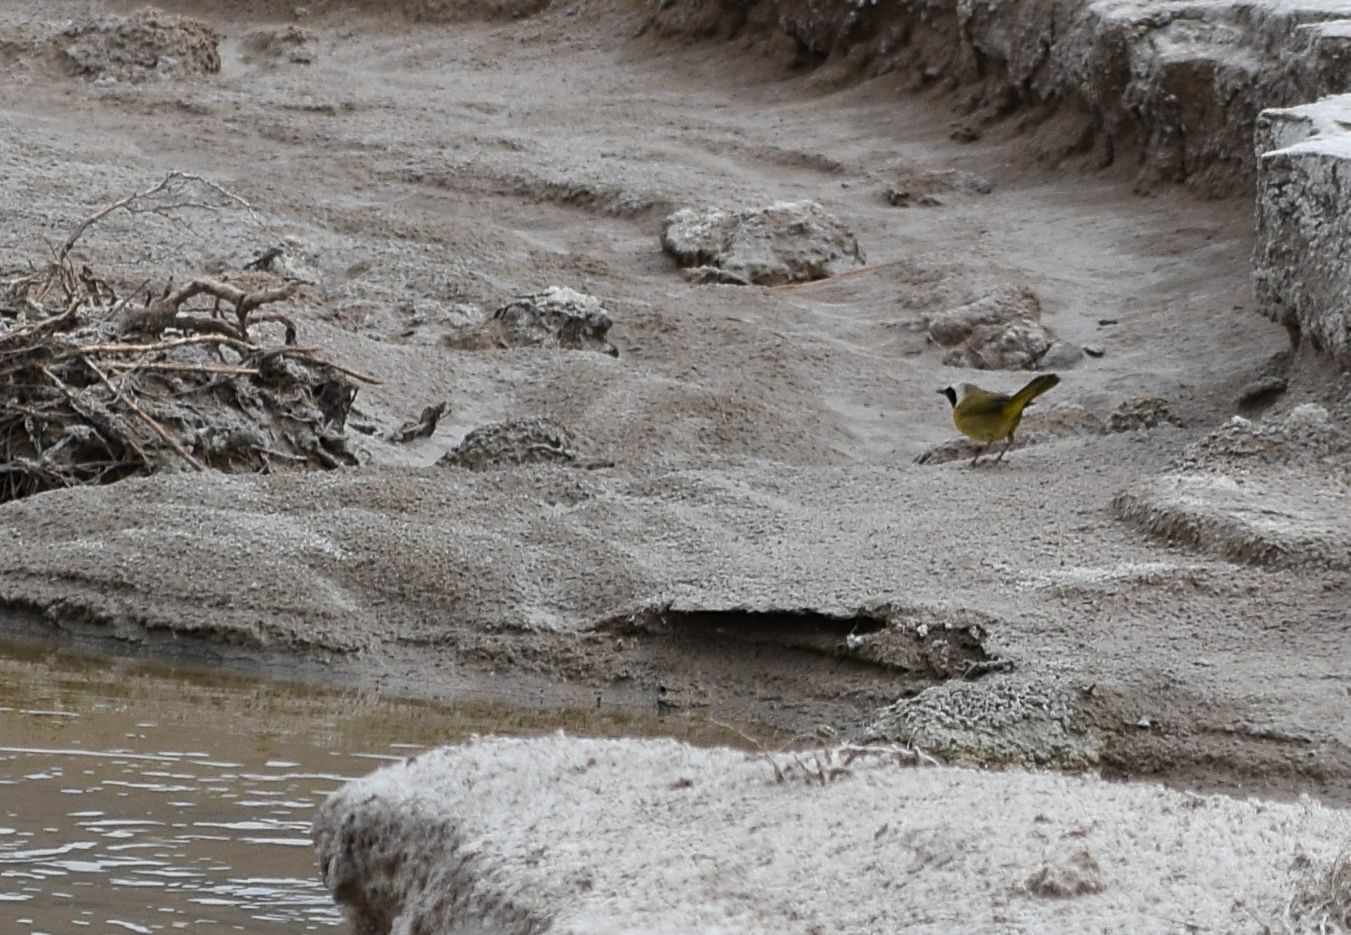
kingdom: Animalia
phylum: Chordata
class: Aves
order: Passeriformes
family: Parulidae
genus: Geothlypis
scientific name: Geothlypis trichas
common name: Common yellowthroat
